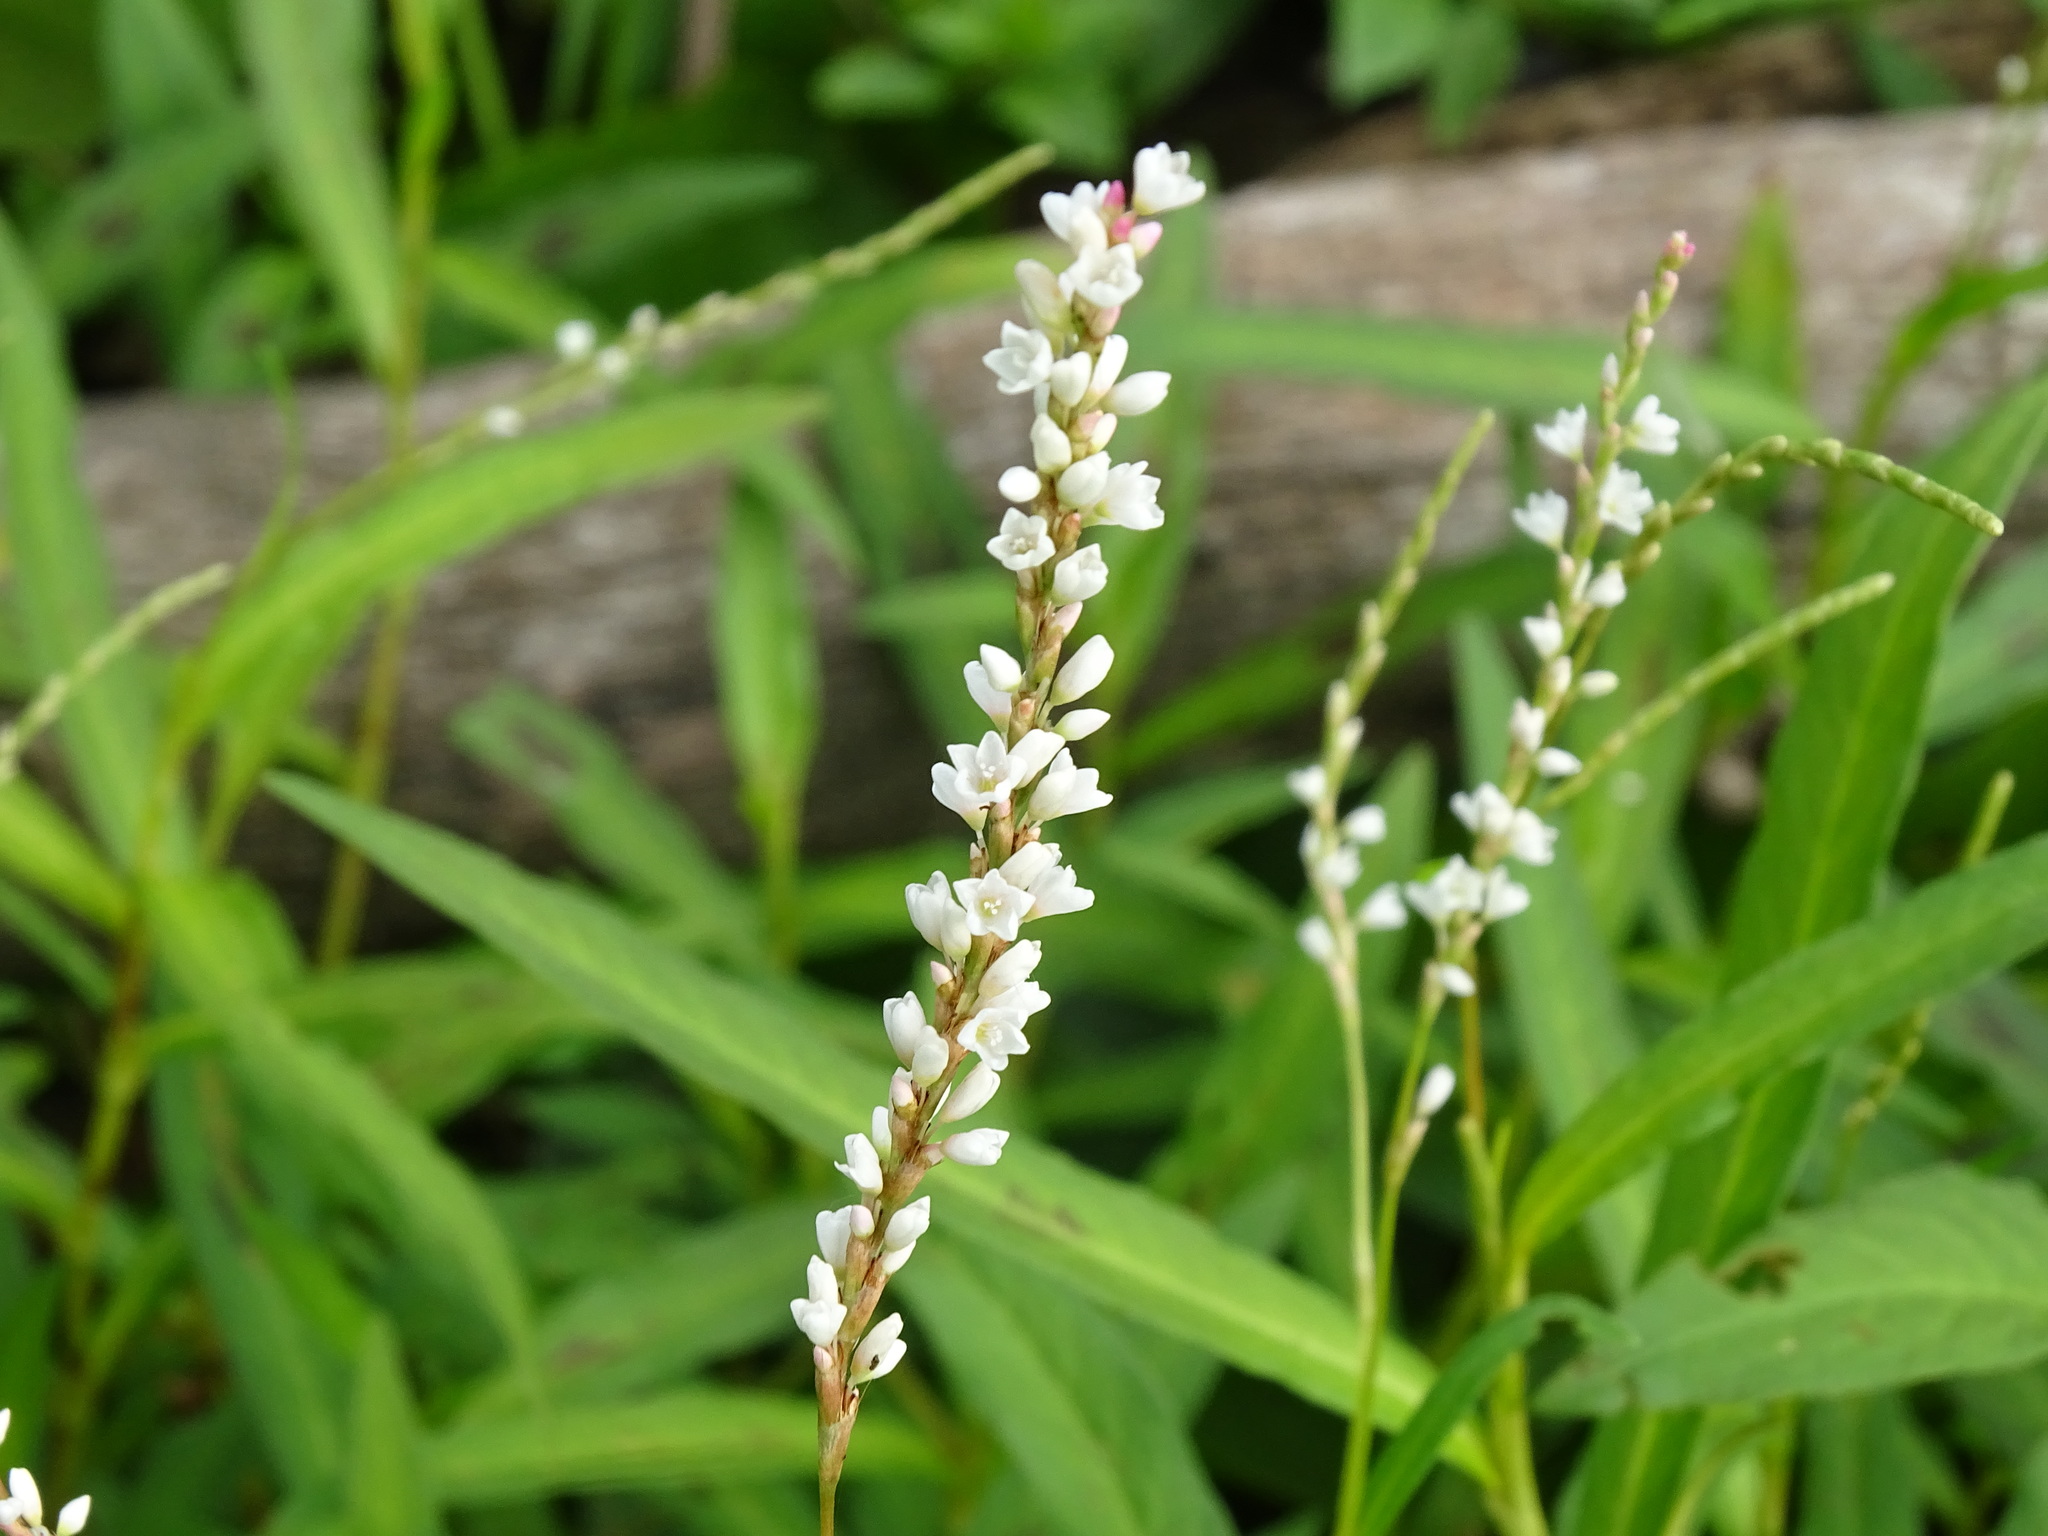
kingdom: Plantae
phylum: Tracheophyta
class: Magnoliopsida
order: Caryophyllales
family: Polygonaceae
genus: Persicaria
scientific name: Persicaria hydropiperoides
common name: Swamp smartweed
